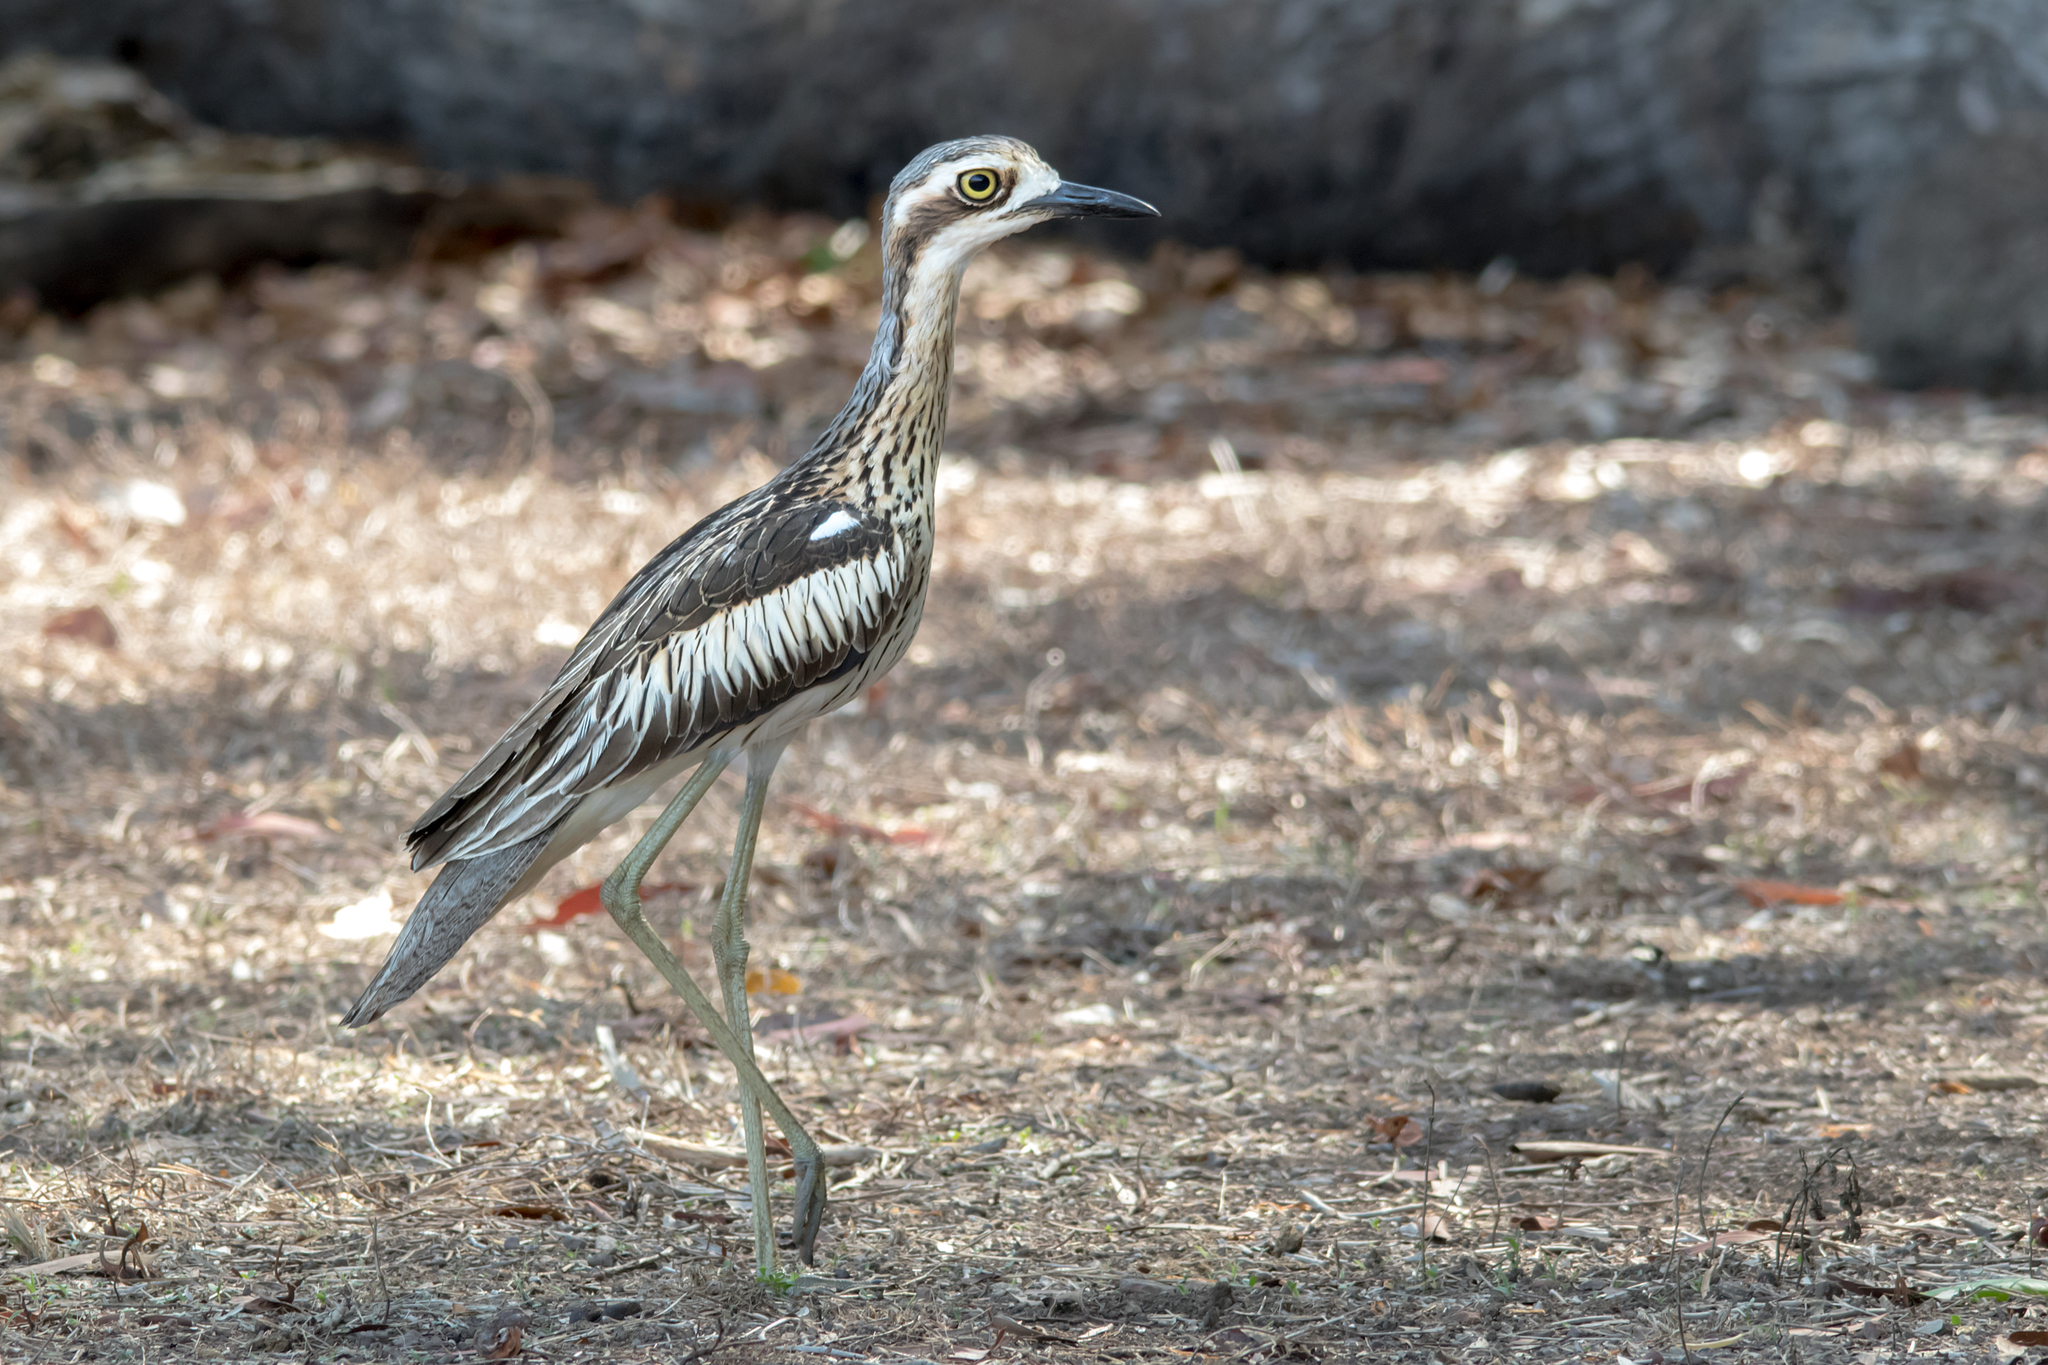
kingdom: Animalia
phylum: Chordata
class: Aves
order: Charadriiformes
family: Burhinidae
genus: Burhinus
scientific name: Burhinus grallarius
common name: Bush stone-curlew
